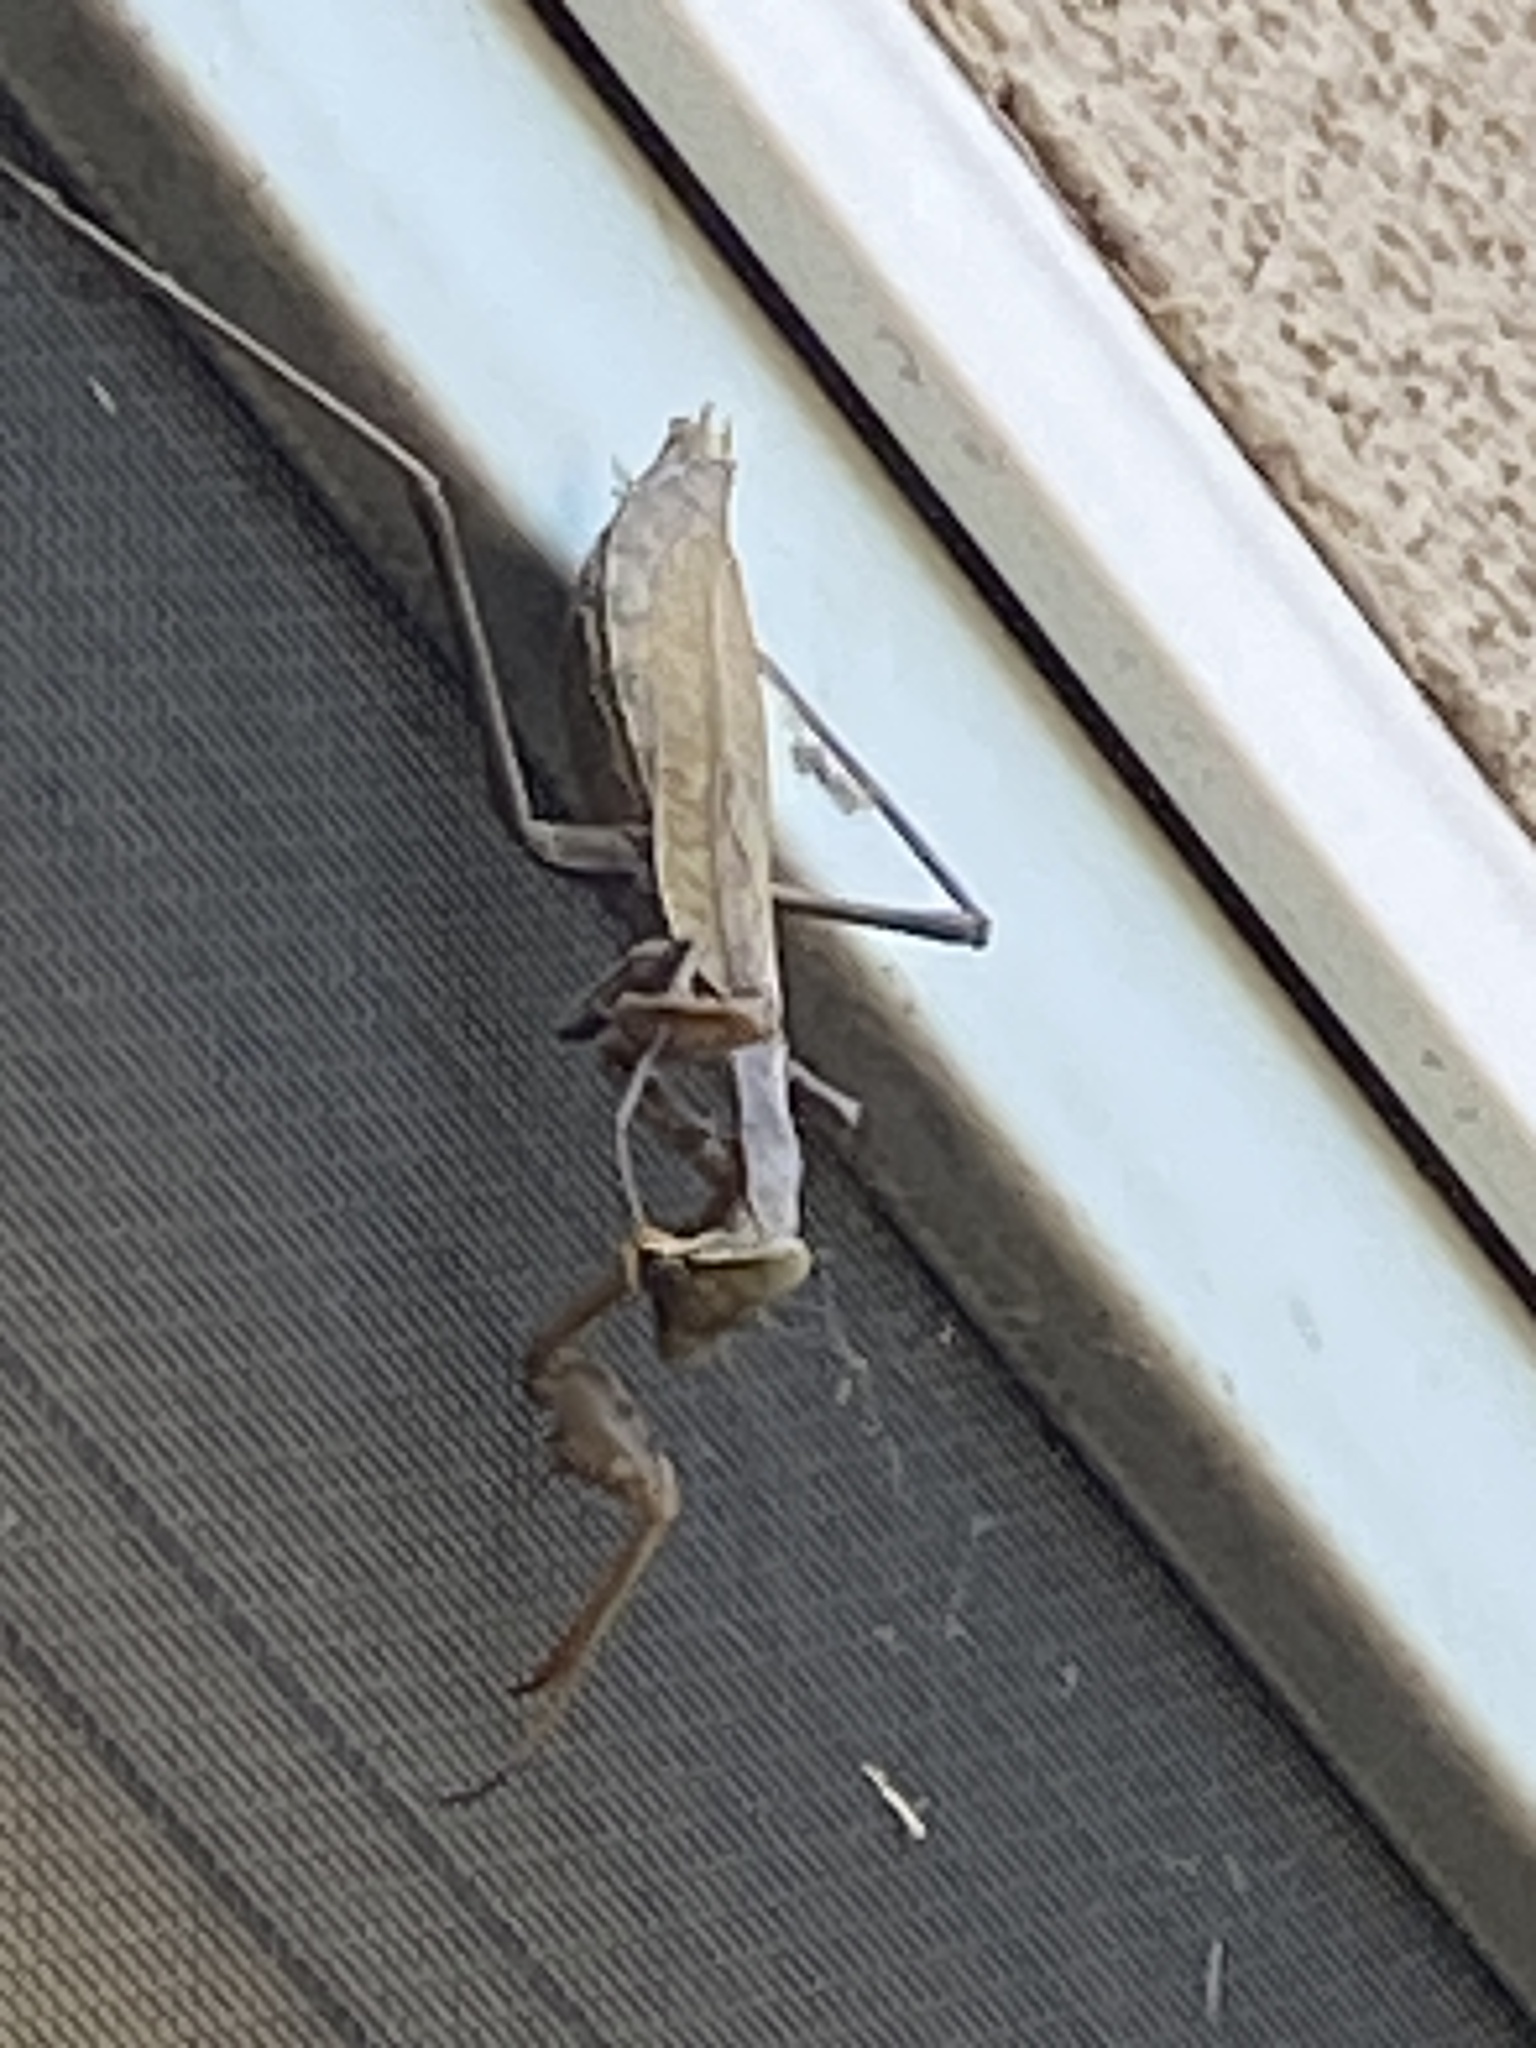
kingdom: Animalia
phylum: Arthropoda
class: Insecta
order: Mantodea
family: Mantidae
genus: Stagmomantis
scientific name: Stagmomantis limbata
